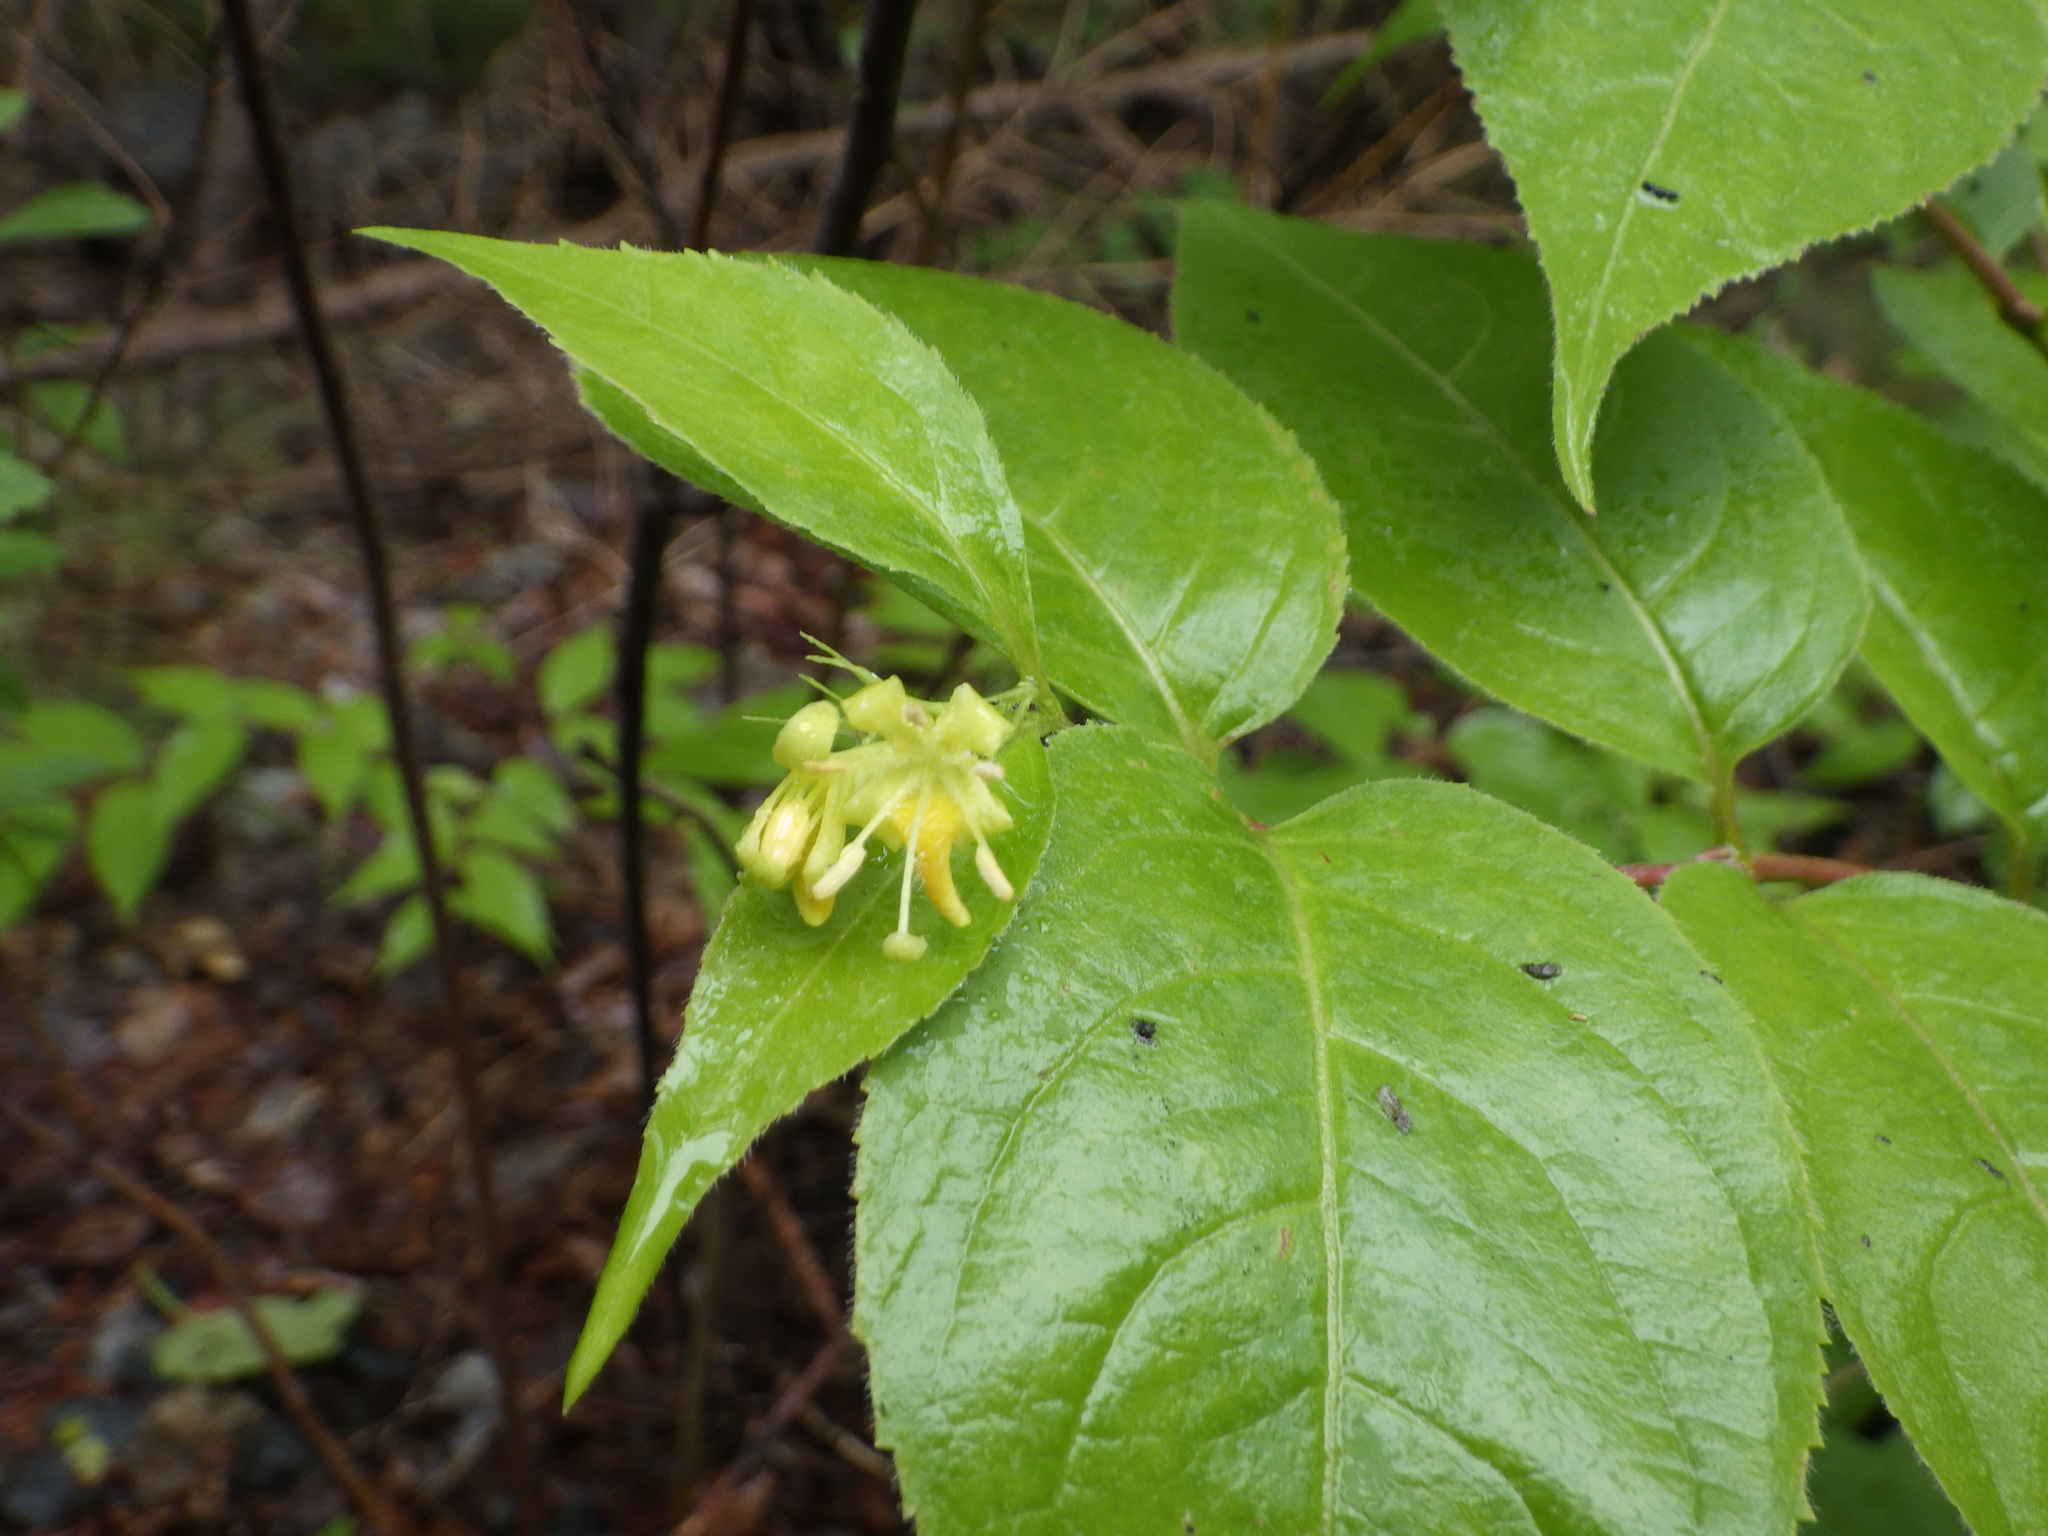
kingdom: Plantae
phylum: Tracheophyta
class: Magnoliopsida
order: Dipsacales
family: Caprifoliaceae
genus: Diervilla
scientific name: Diervilla lonicera
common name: Bush-honeysuckle
